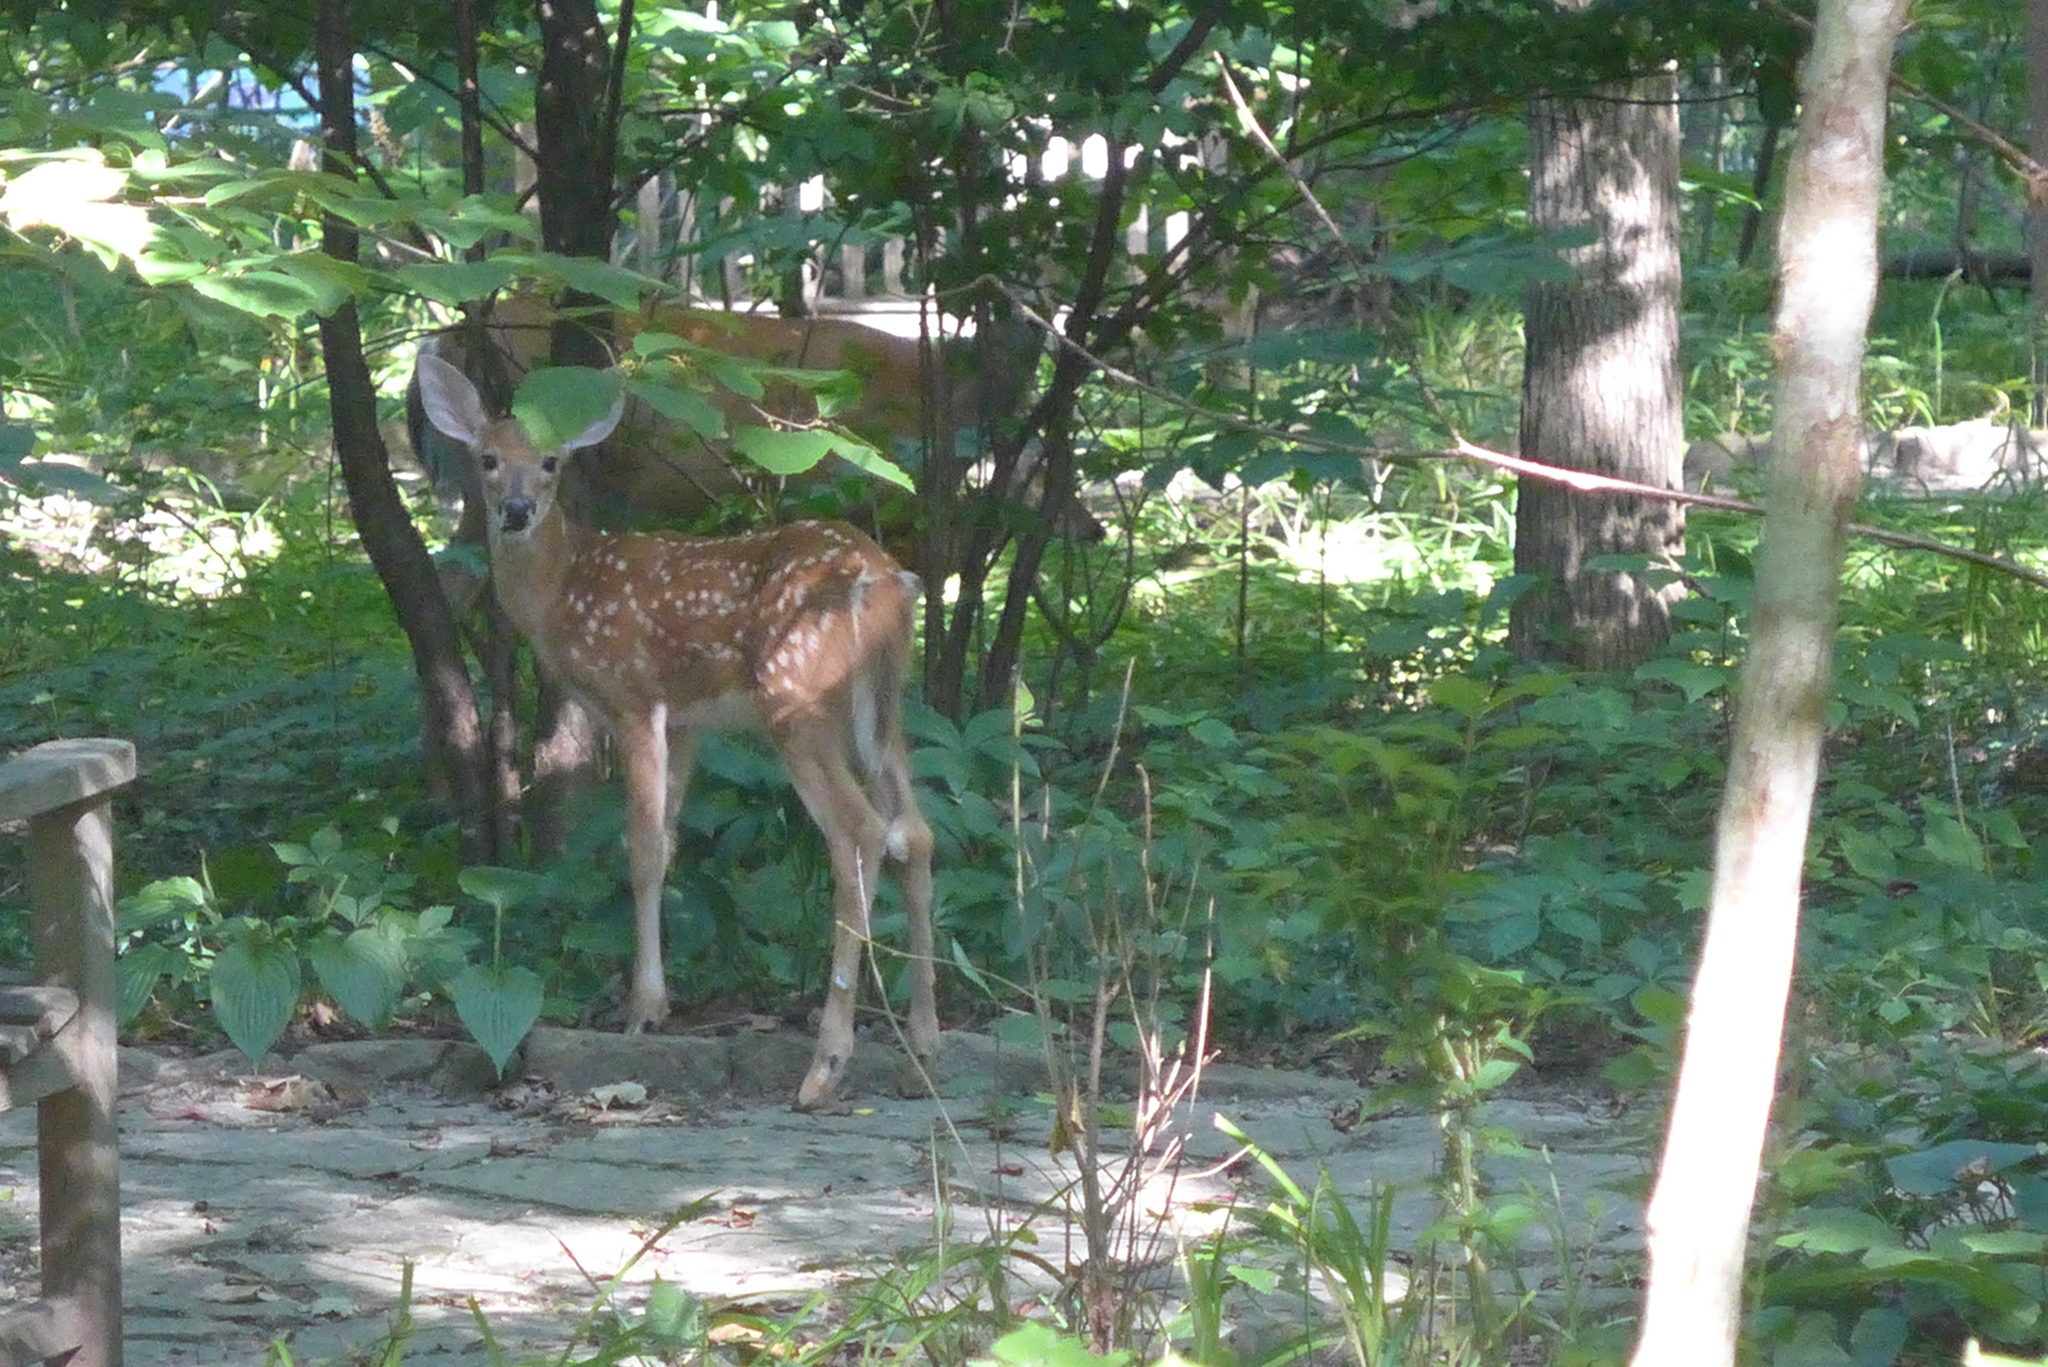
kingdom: Animalia
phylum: Chordata
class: Mammalia
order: Artiodactyla
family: Cervidae
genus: Odocoileus
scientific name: Odocoileus virginianus
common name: White-tailed deer
